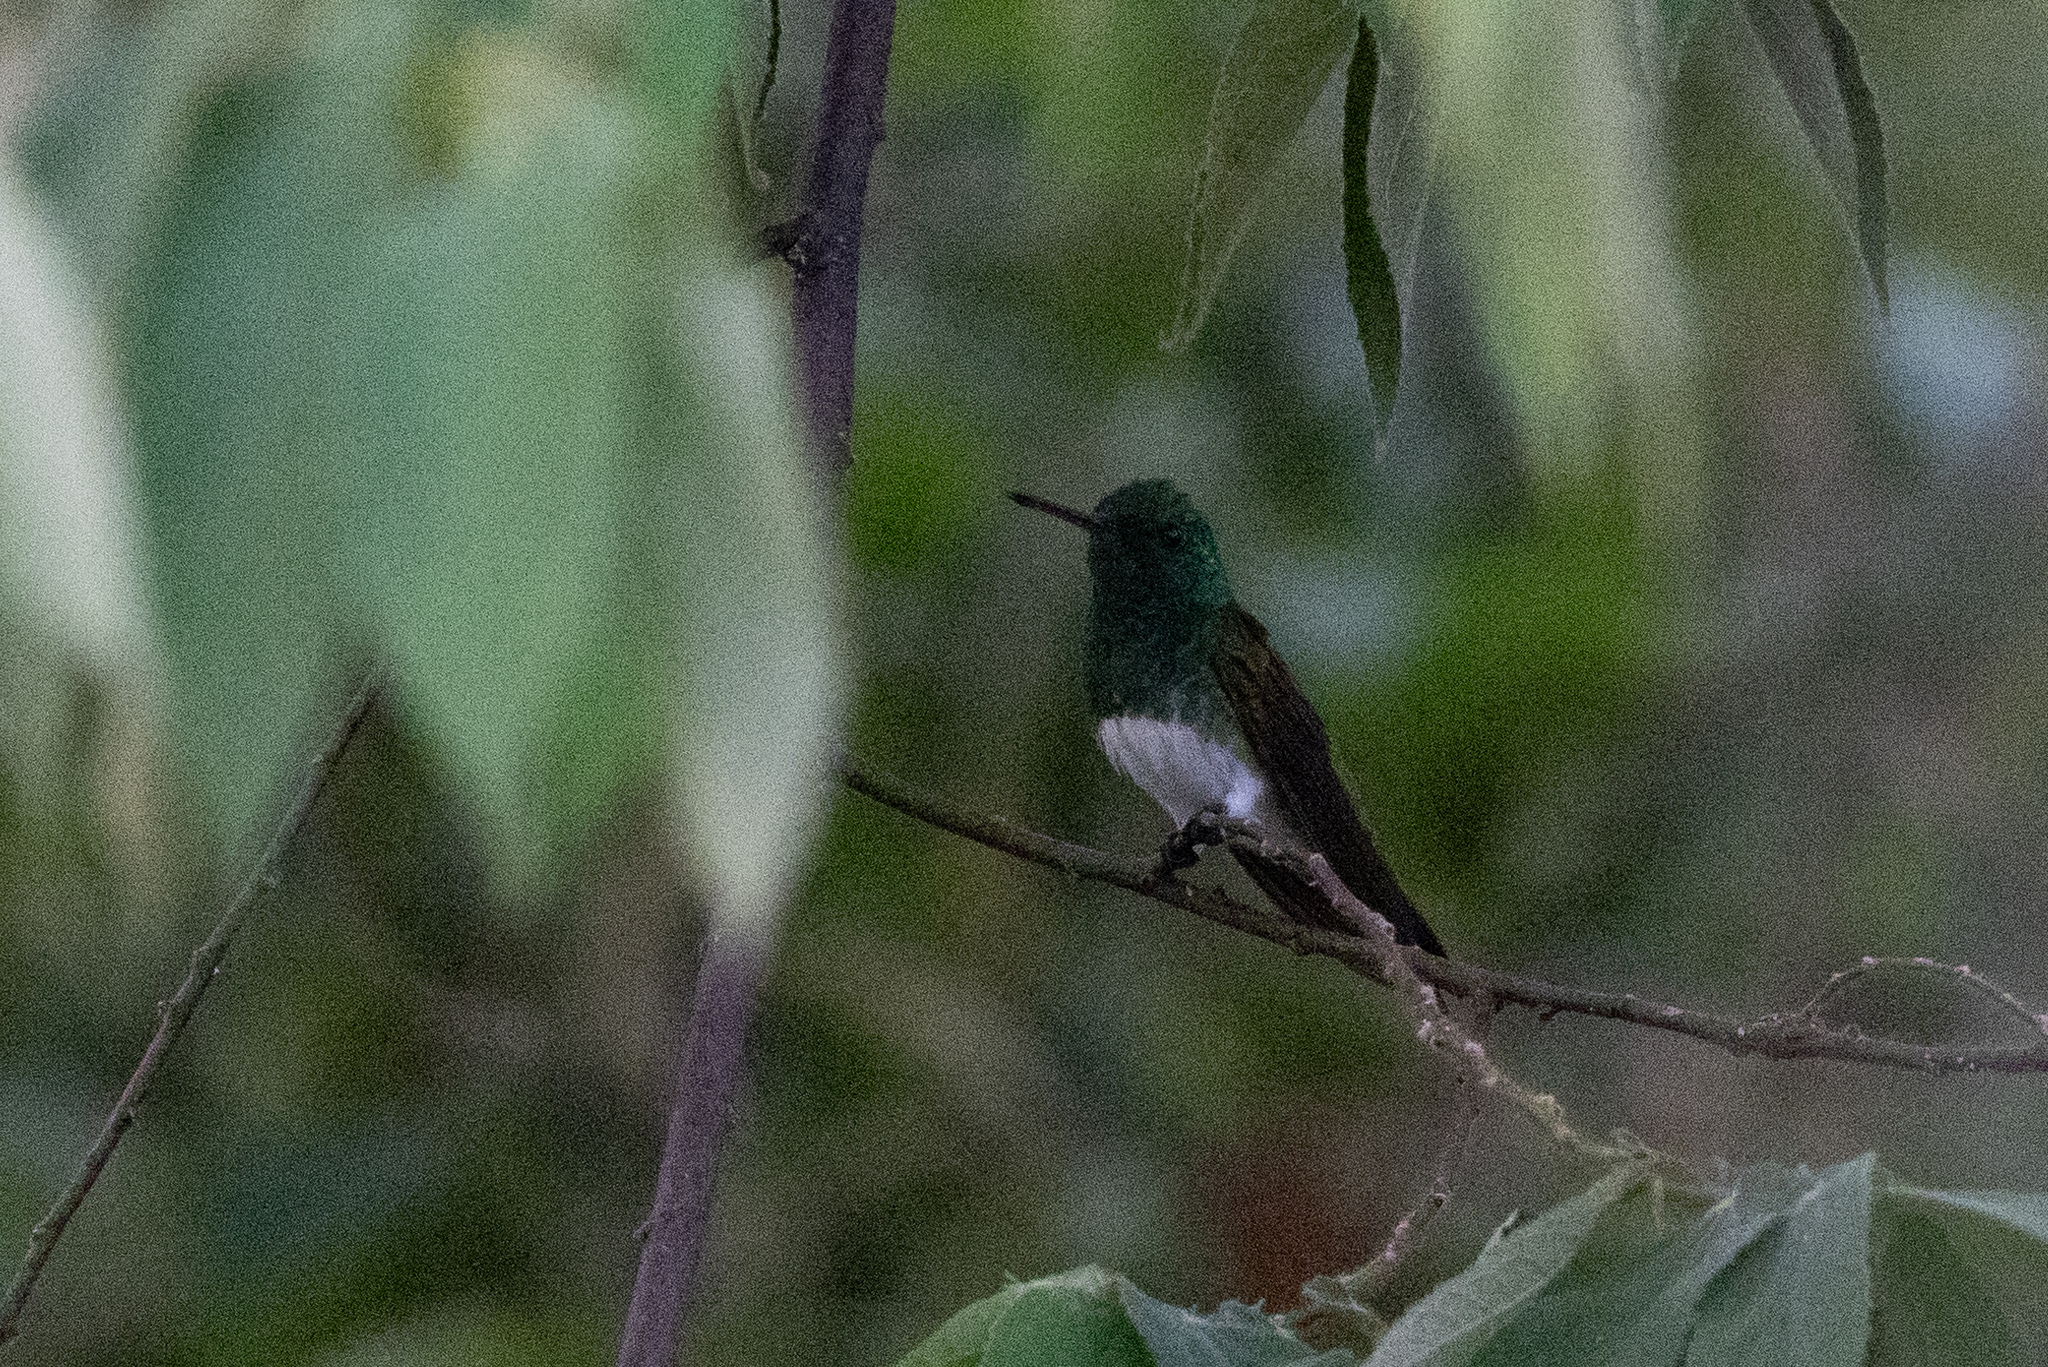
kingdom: Animalia
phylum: Chordata
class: Aves
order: Apodiformes
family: Trochilidae
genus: Saucerottia
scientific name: Saucerottia edward
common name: Snowy-bellied hummingbird
